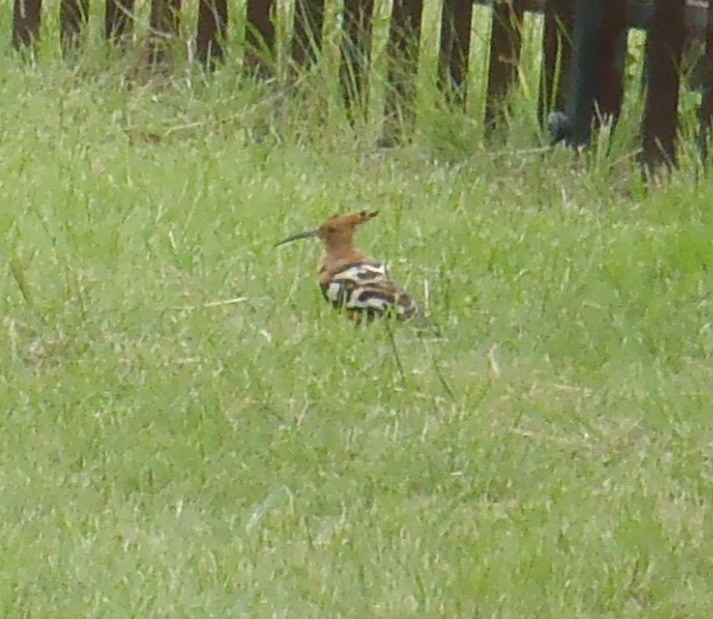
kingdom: Animalia
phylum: Chordata
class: Aves
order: Bucerotiformes
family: Upupidae
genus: Upupa
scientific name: Upupa africana
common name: African hoopoe
